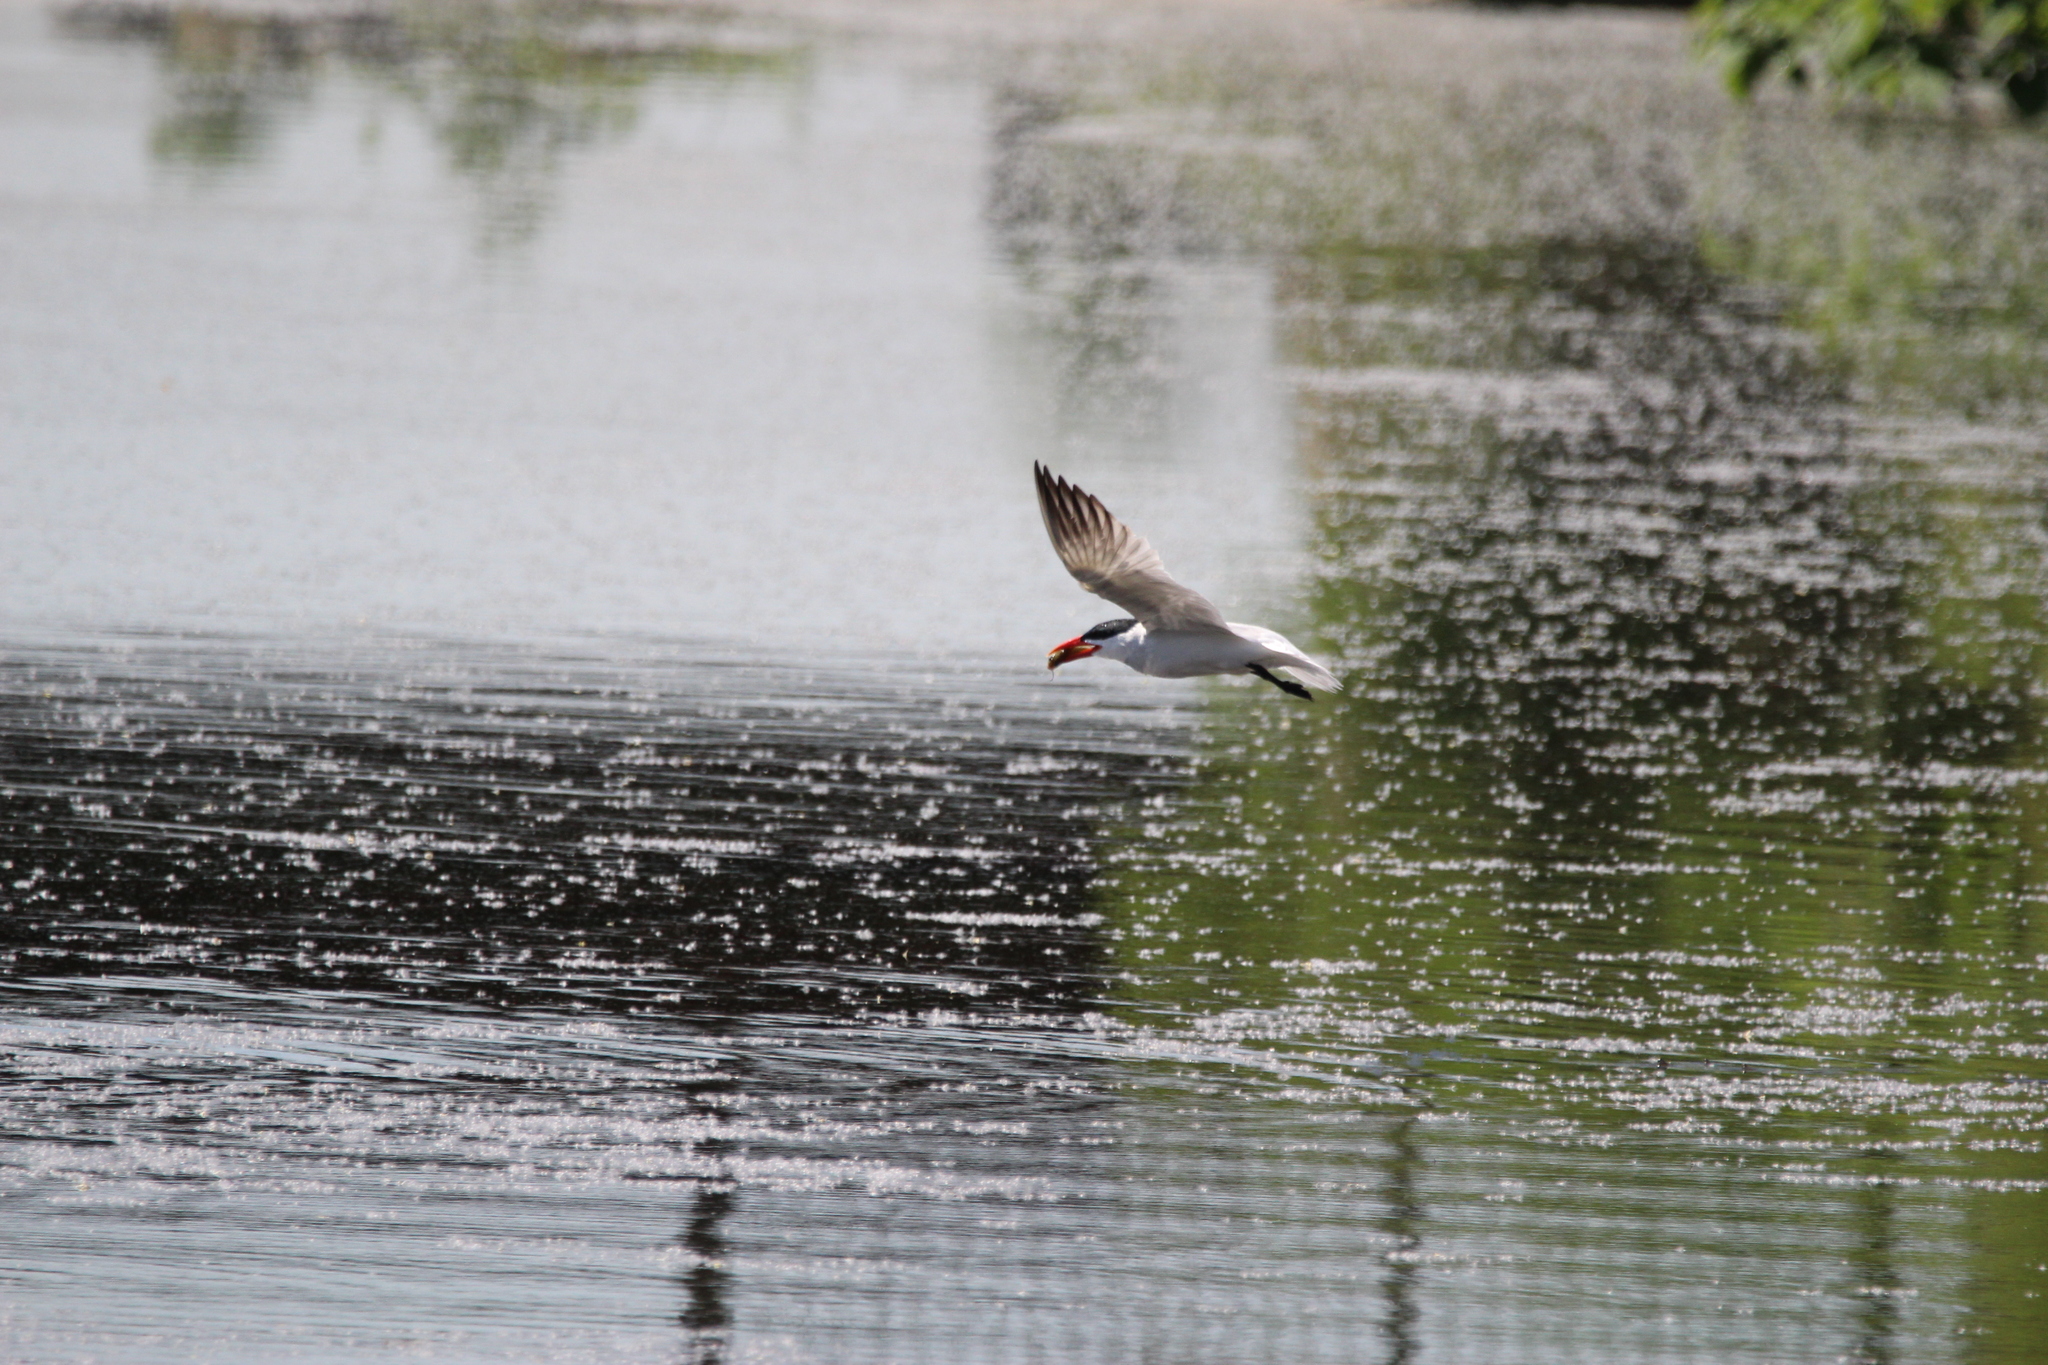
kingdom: Animalia
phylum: Chordata
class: Aves
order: Charadriiformes
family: Laridae
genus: Hydroprogne
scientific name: Hydroprogne caspia
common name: Caspian tern
